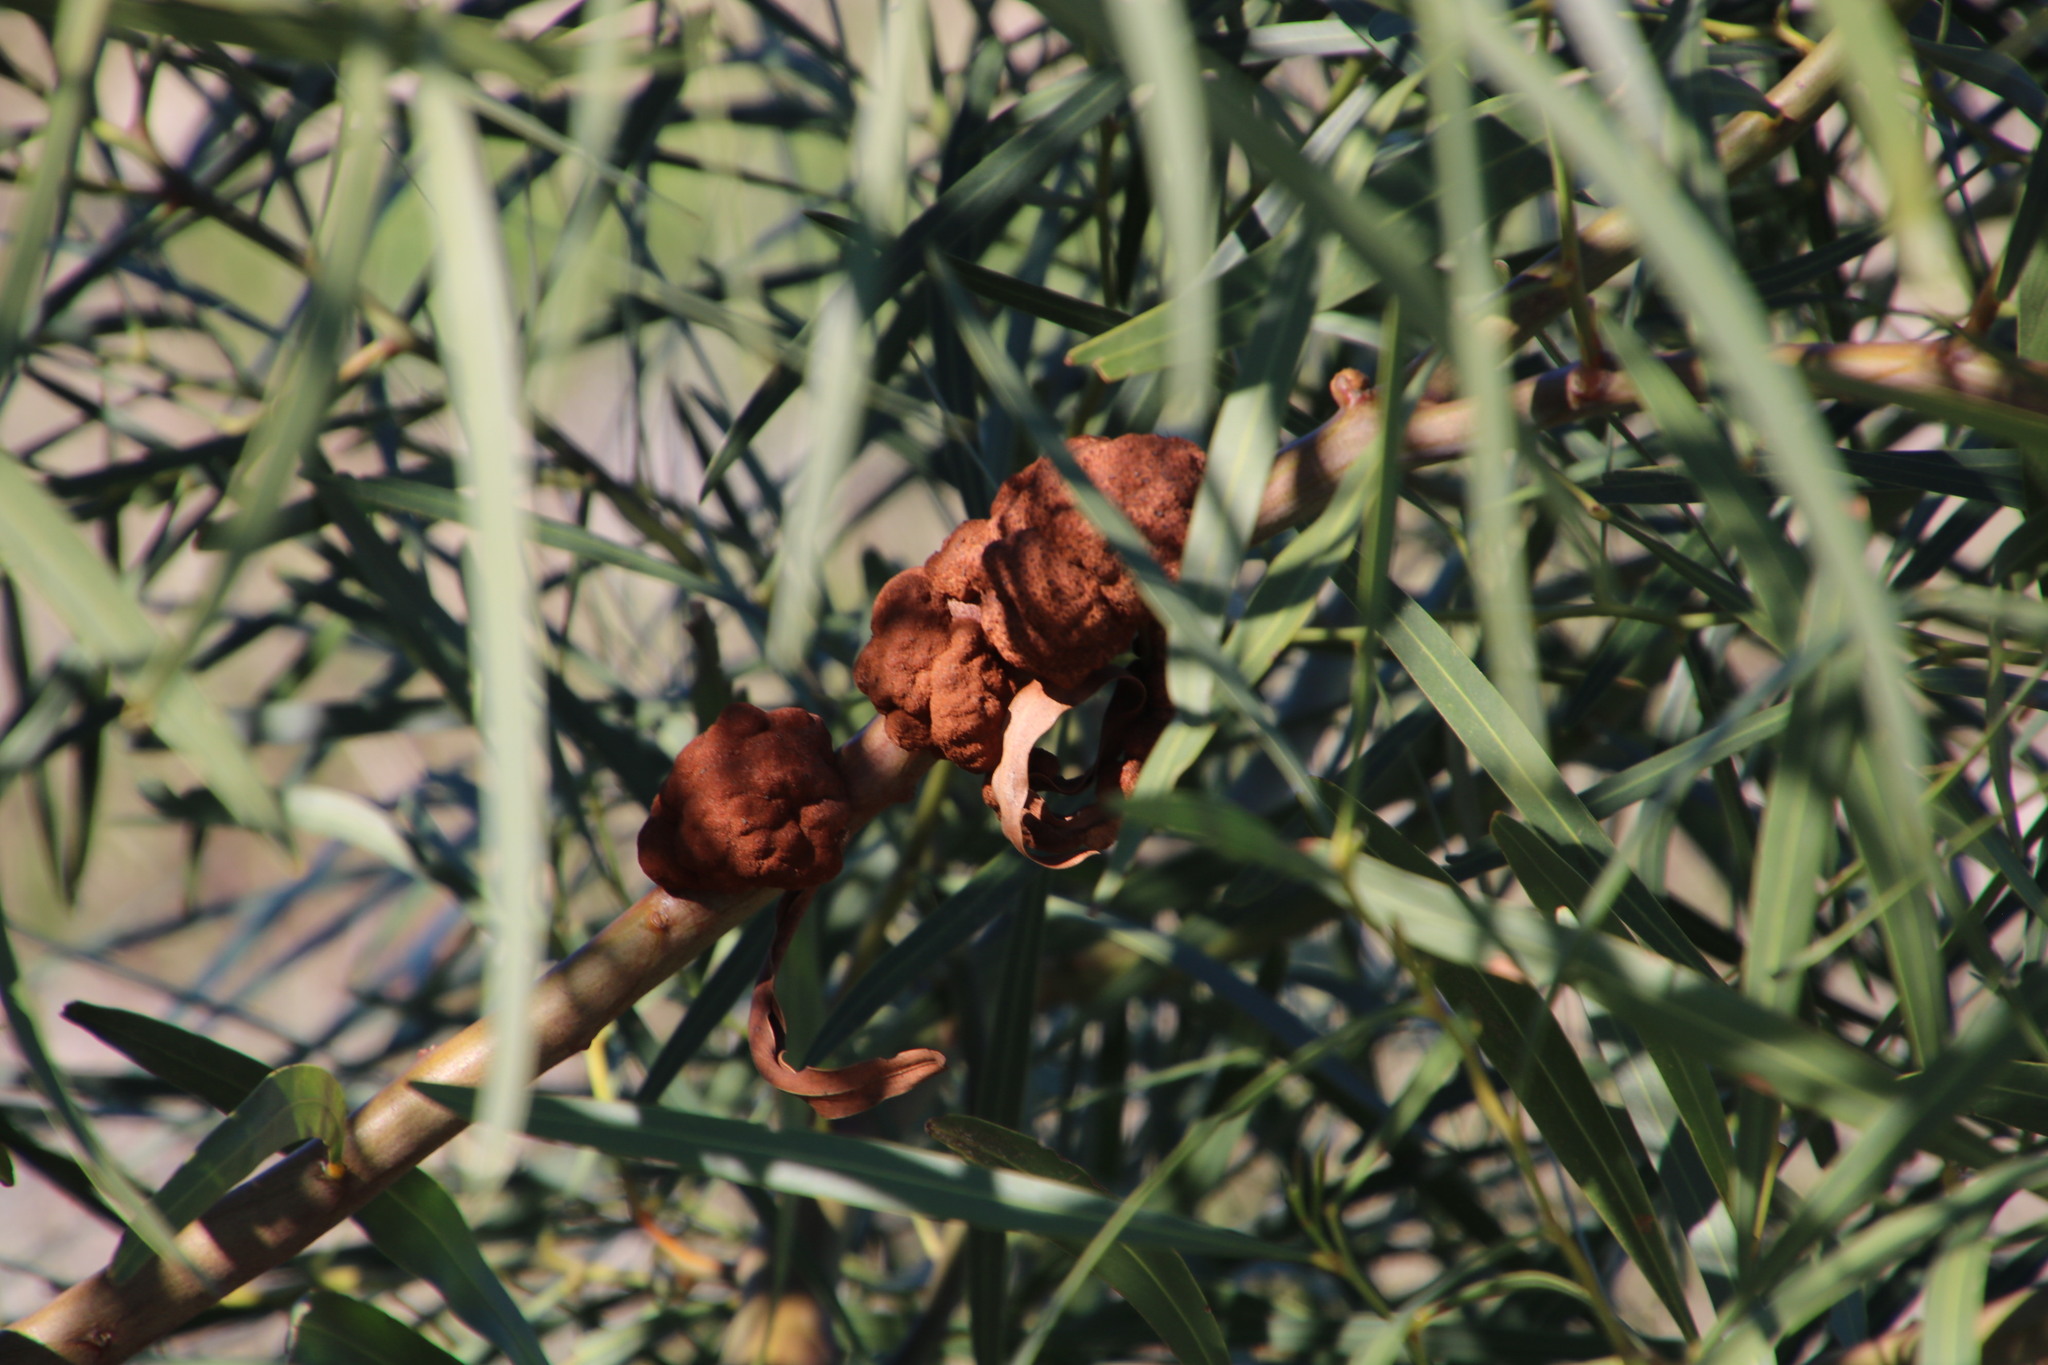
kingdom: Fungi
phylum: Basidiomycota
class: Pucciniomycetes
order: Pucciniales
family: Uromycladiaceae
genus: Uromycladium
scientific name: Uromycladium morrisii
